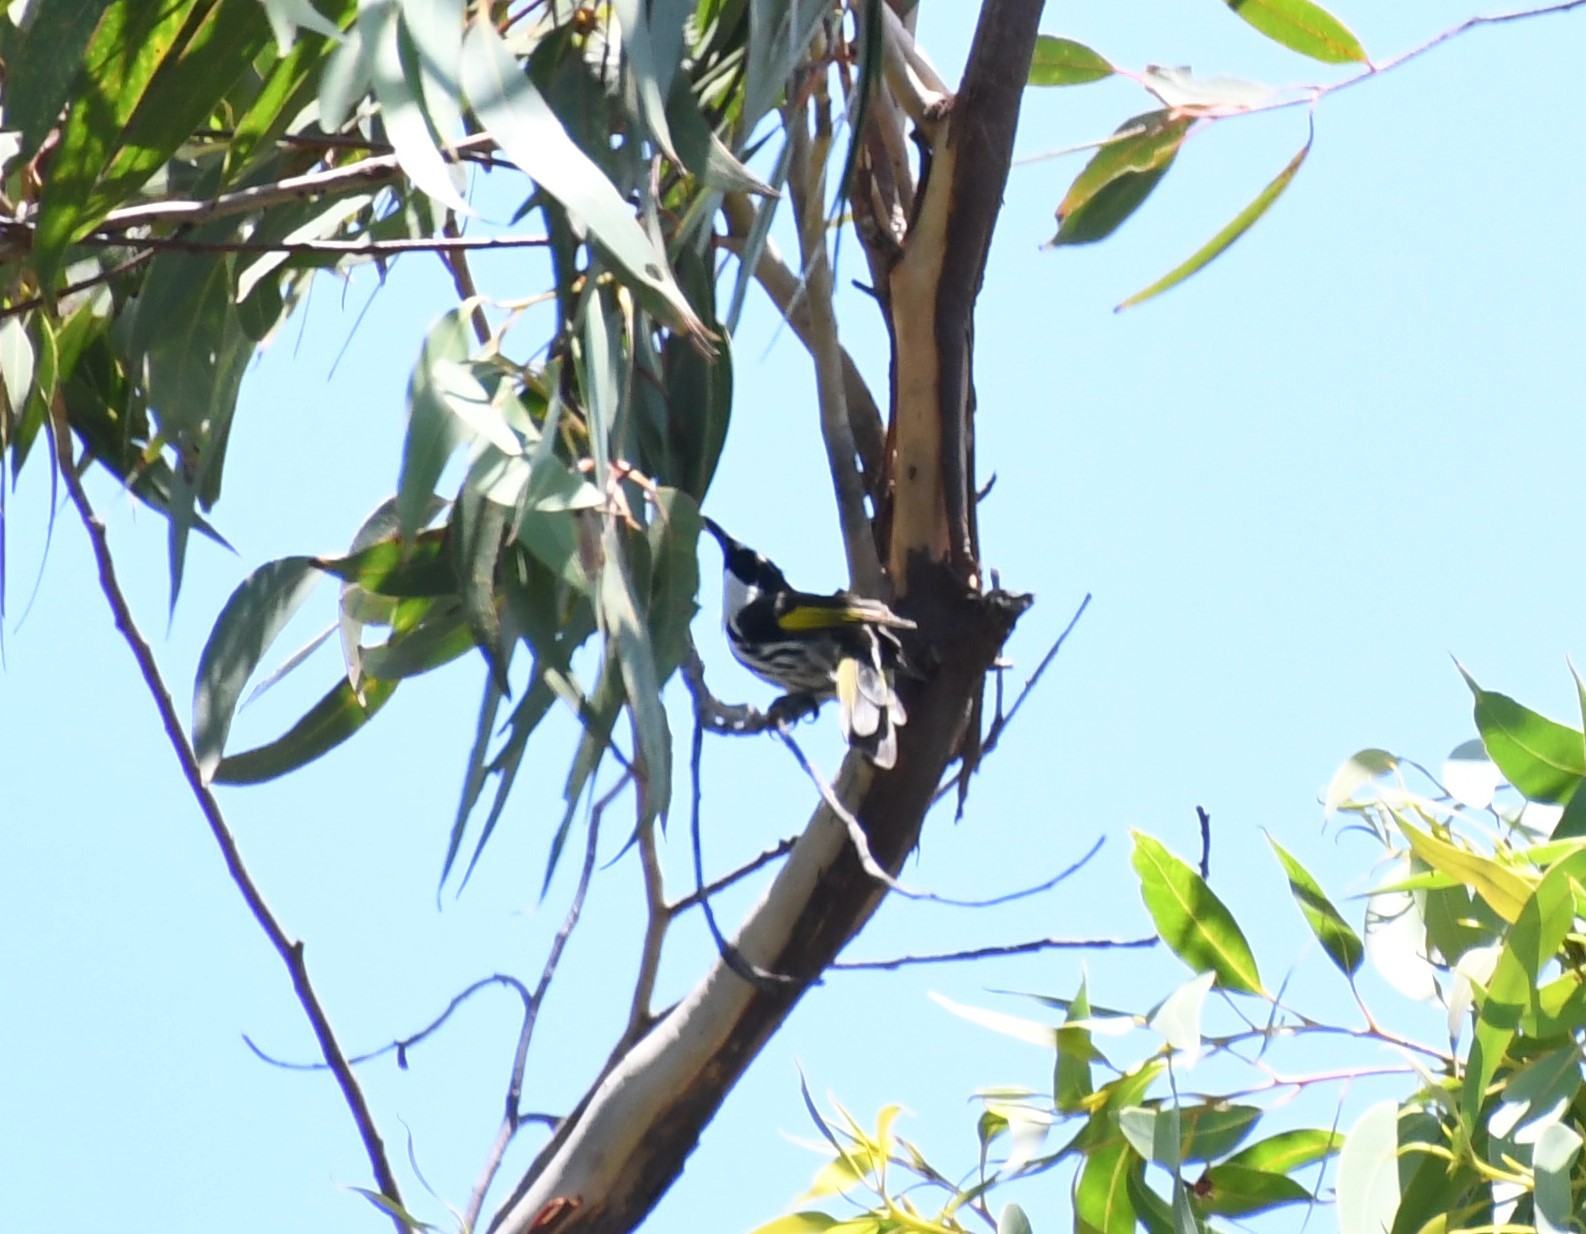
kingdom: Animalia
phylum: Chordata
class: Aves
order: Passeriformes
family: Meliphagidae
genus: Phylidonyris
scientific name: Phylidonyris niger
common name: White-cheeked honeyeater
